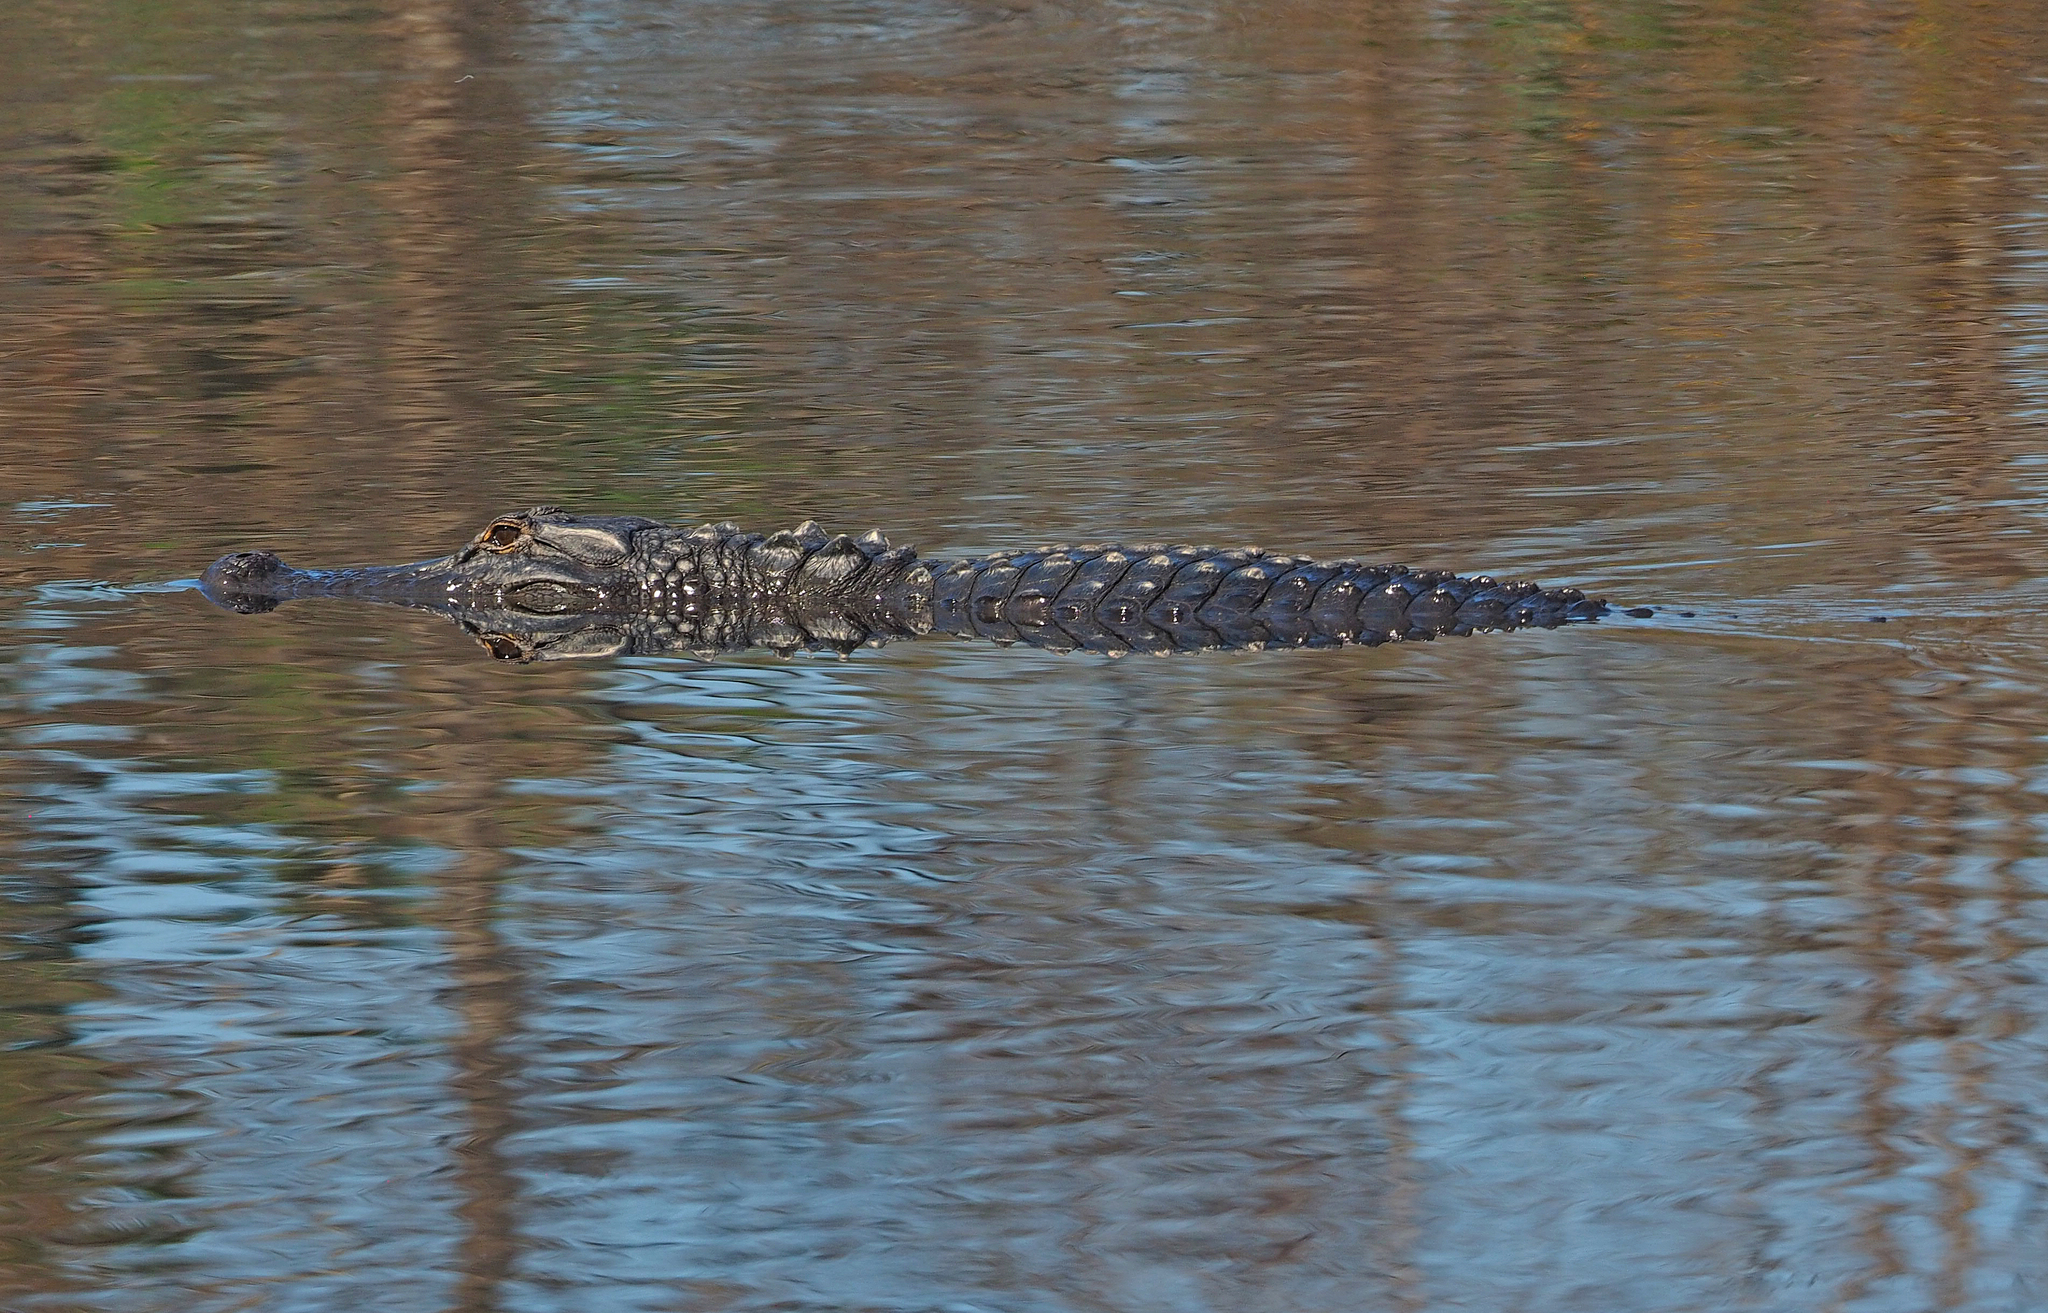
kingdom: Animalia
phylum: Chordata
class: Crocodylia
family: Alligatoridae
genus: Alligator
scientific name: Alligator mississippiensis
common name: American alligator
